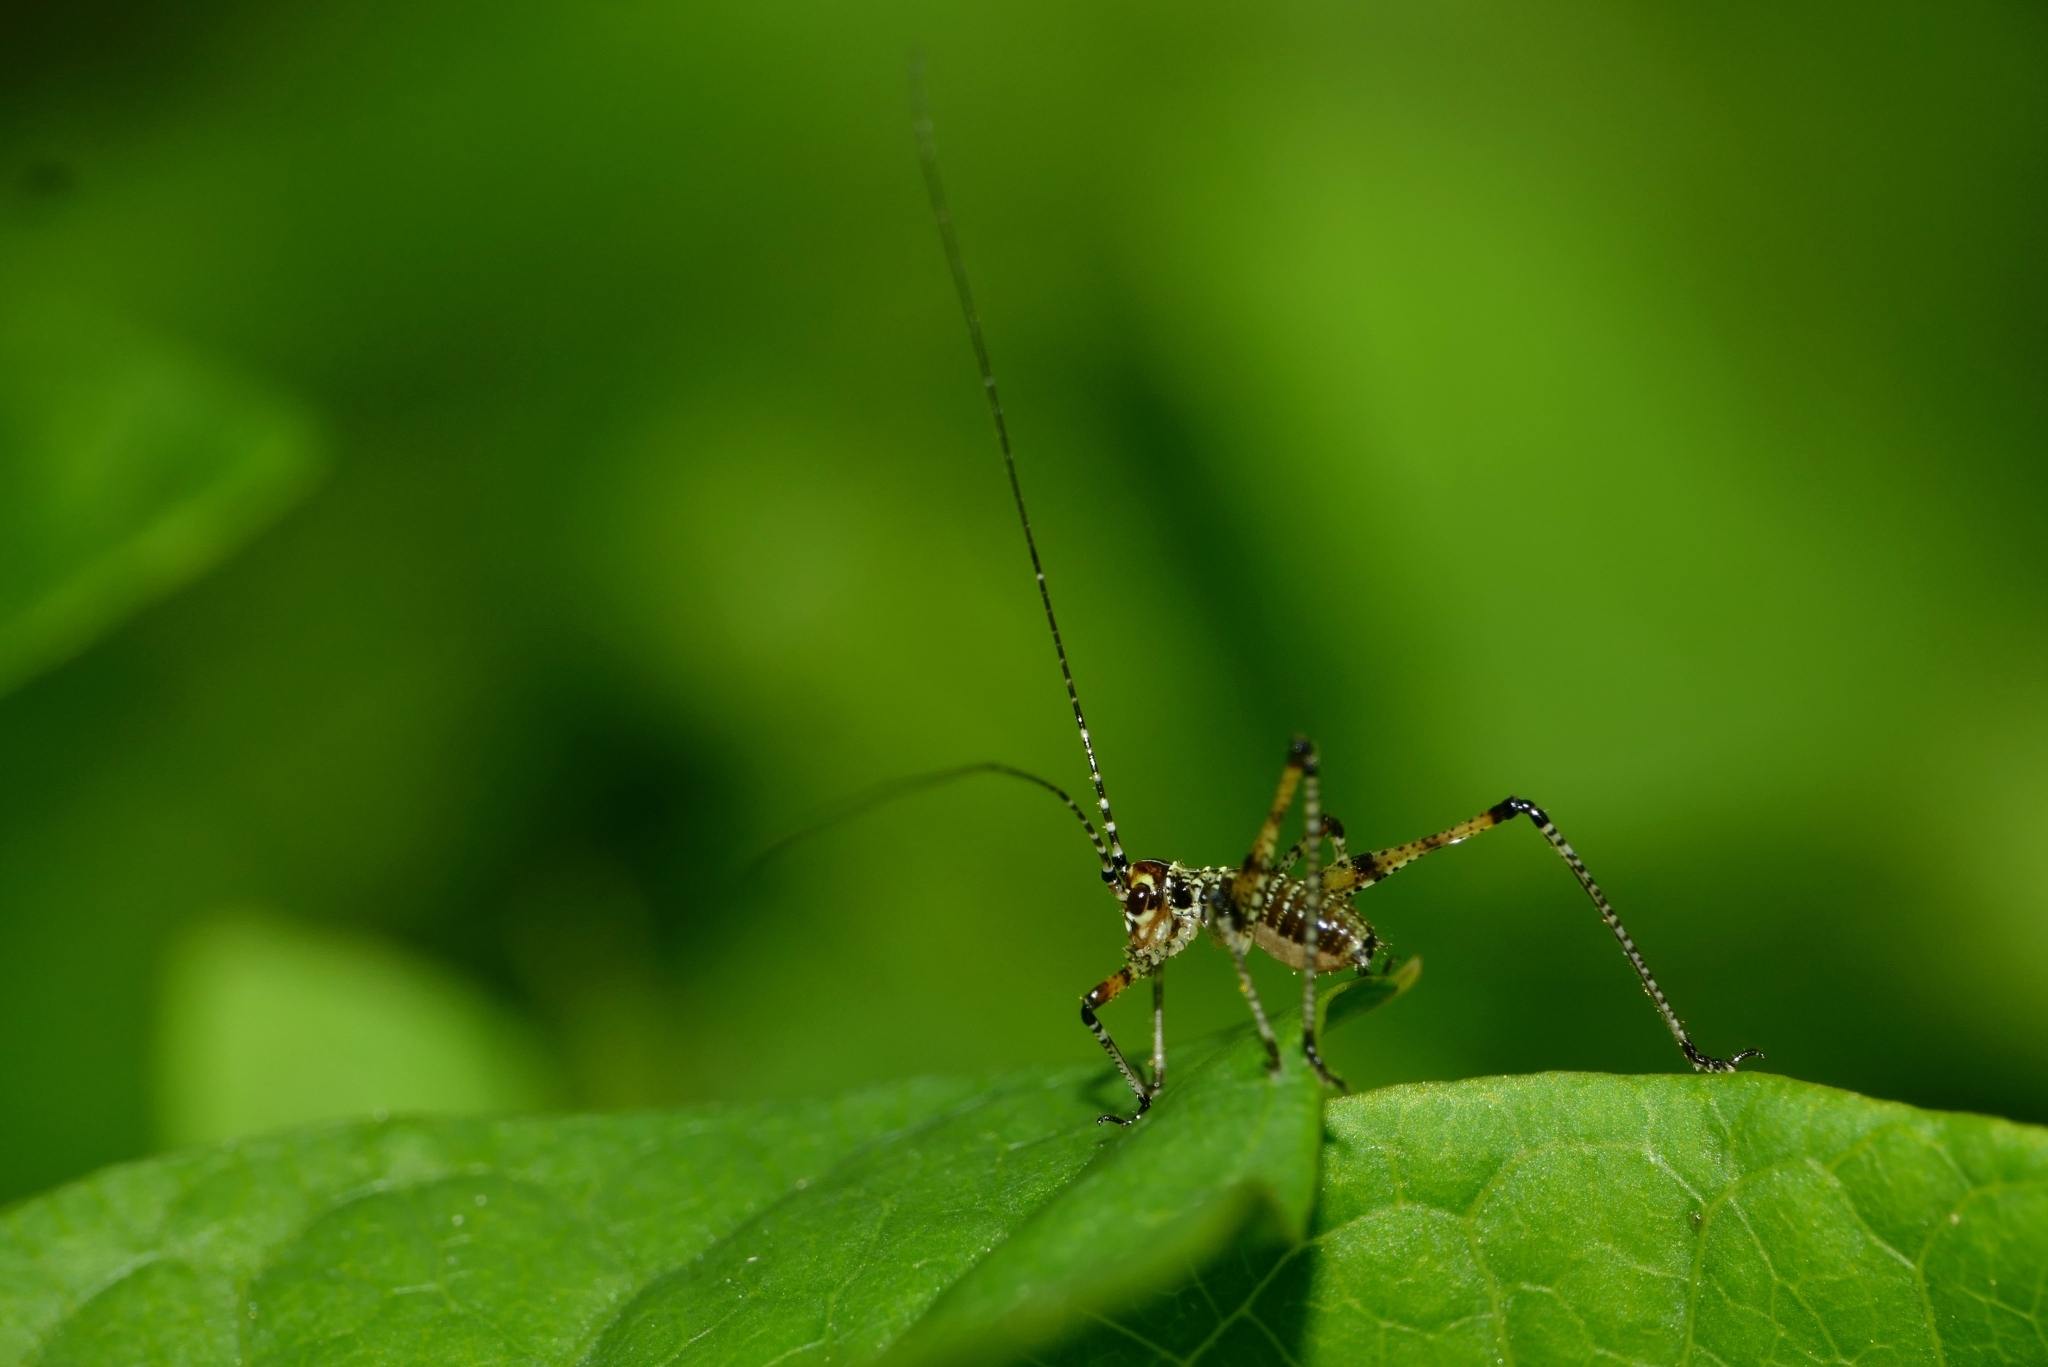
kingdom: Animalia
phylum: Arthropoda
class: Insecta
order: Orthoptera
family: Tettigoniidae
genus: Phaneroptera
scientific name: Phaneroptera nana
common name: Southern sickle bush-cricket
